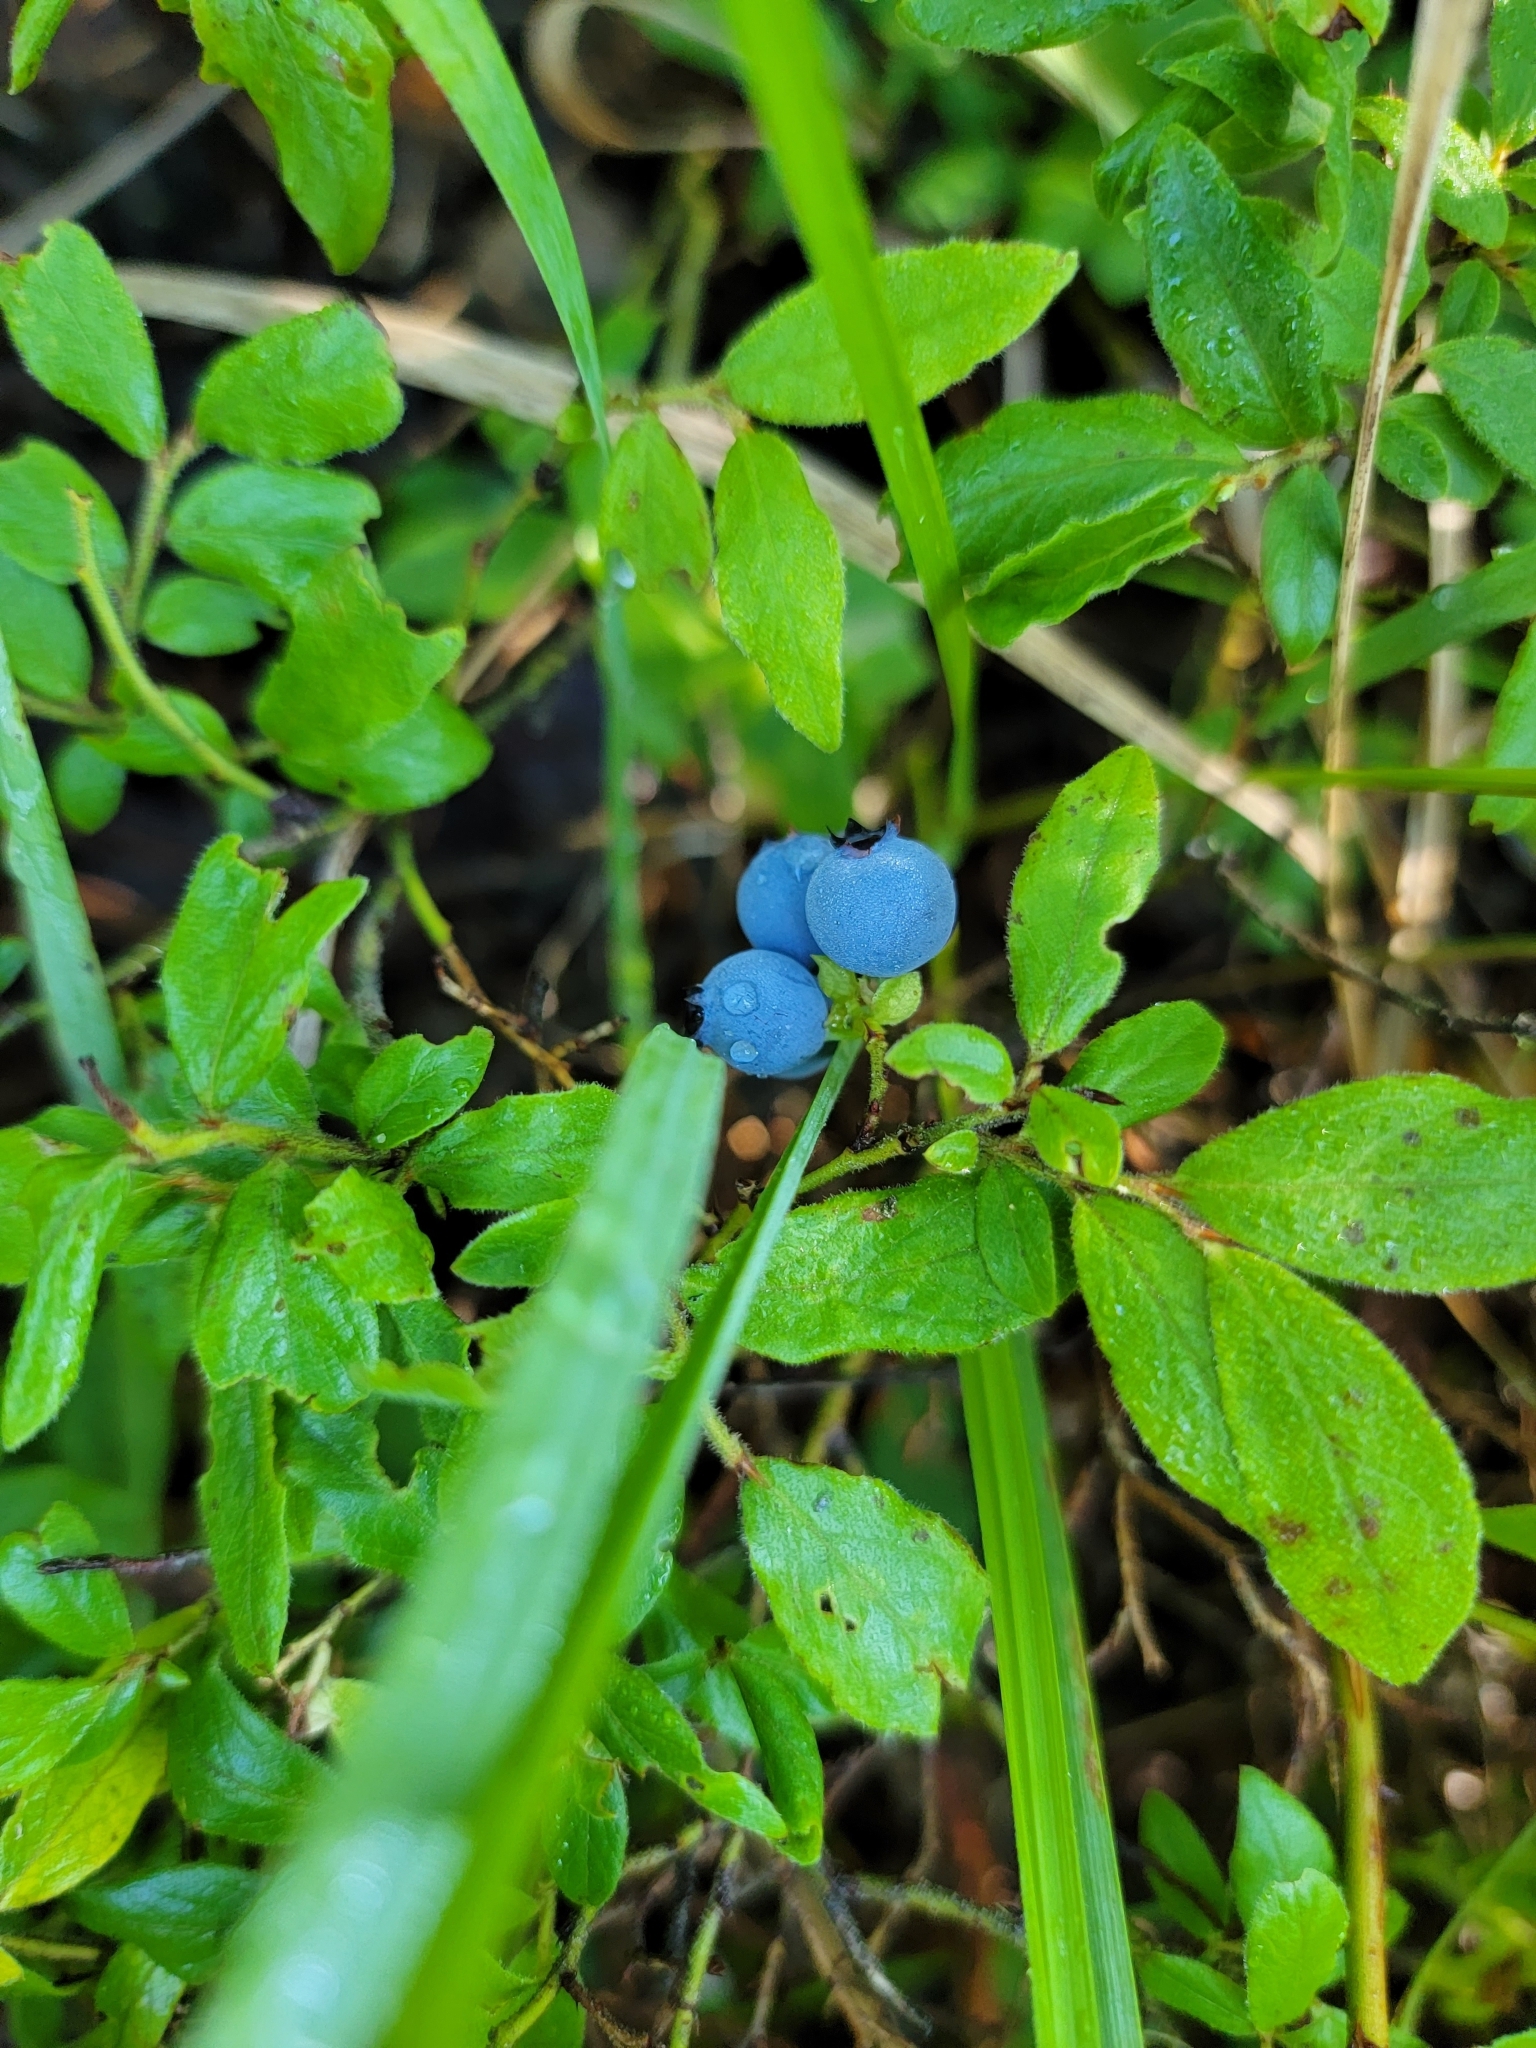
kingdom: Plantae
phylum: Tracheophyta
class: Magnoliopsida
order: Ericales
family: Ericaceae
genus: Vaccinium
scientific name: Vaccinium myrtilloides
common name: Canada blueberry
